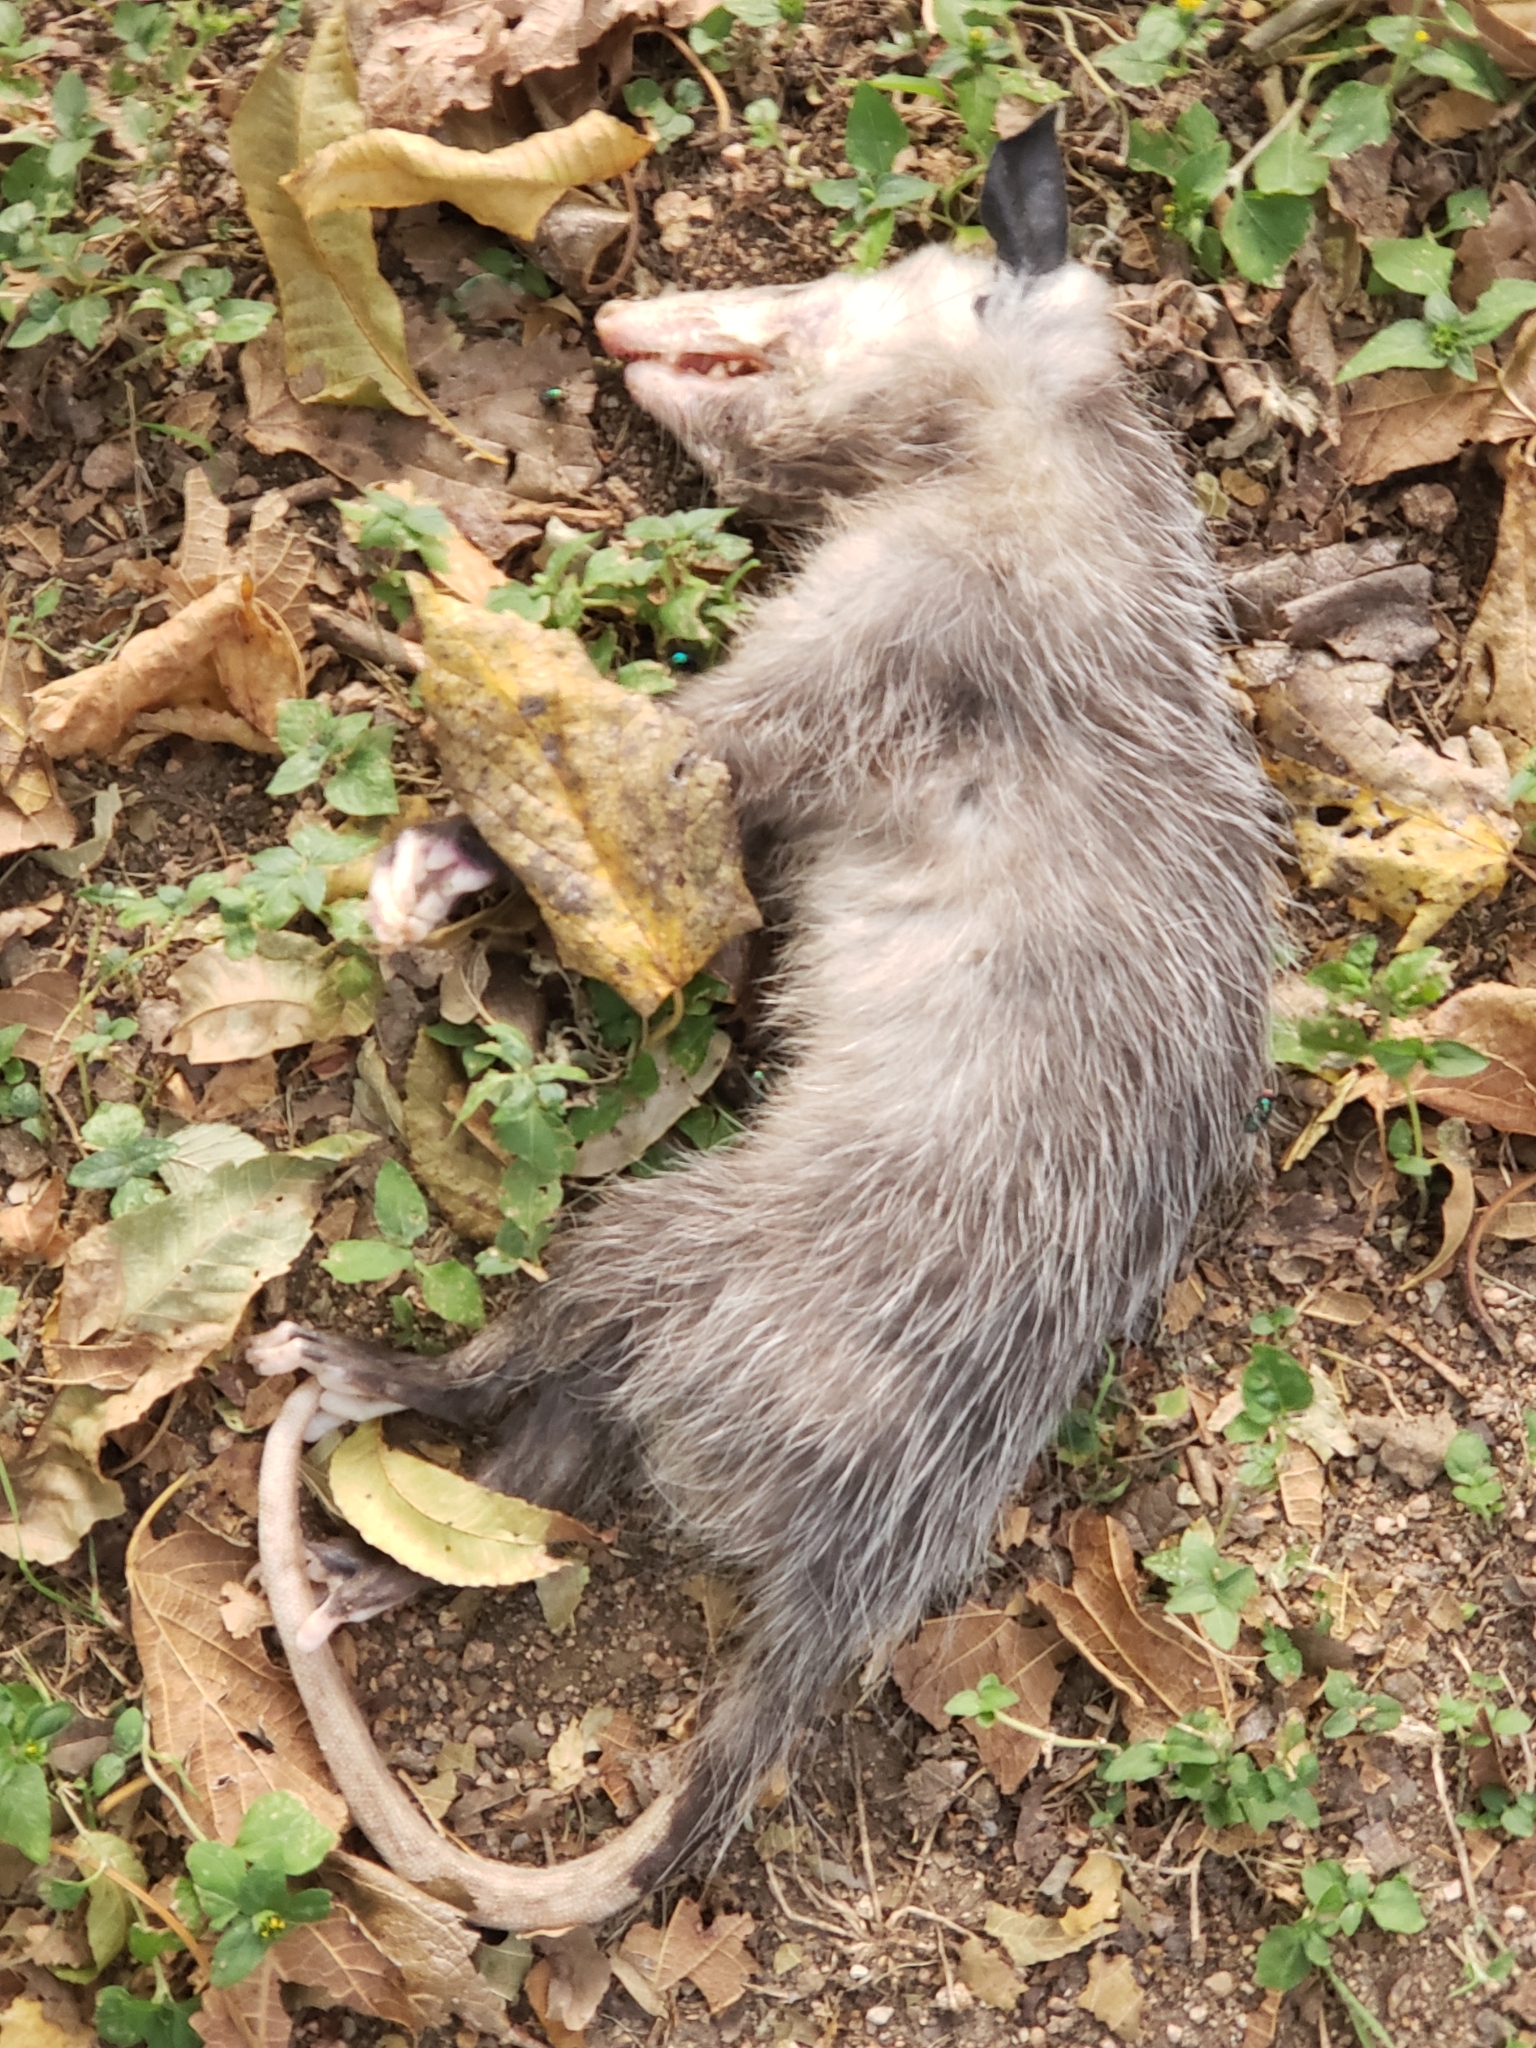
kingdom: Animalia
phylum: Chordata
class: Mammalia
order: Didelphimorphia
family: Didelphidae
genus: Didelphis
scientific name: Didelphis virginiana
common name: Virginia opossum
